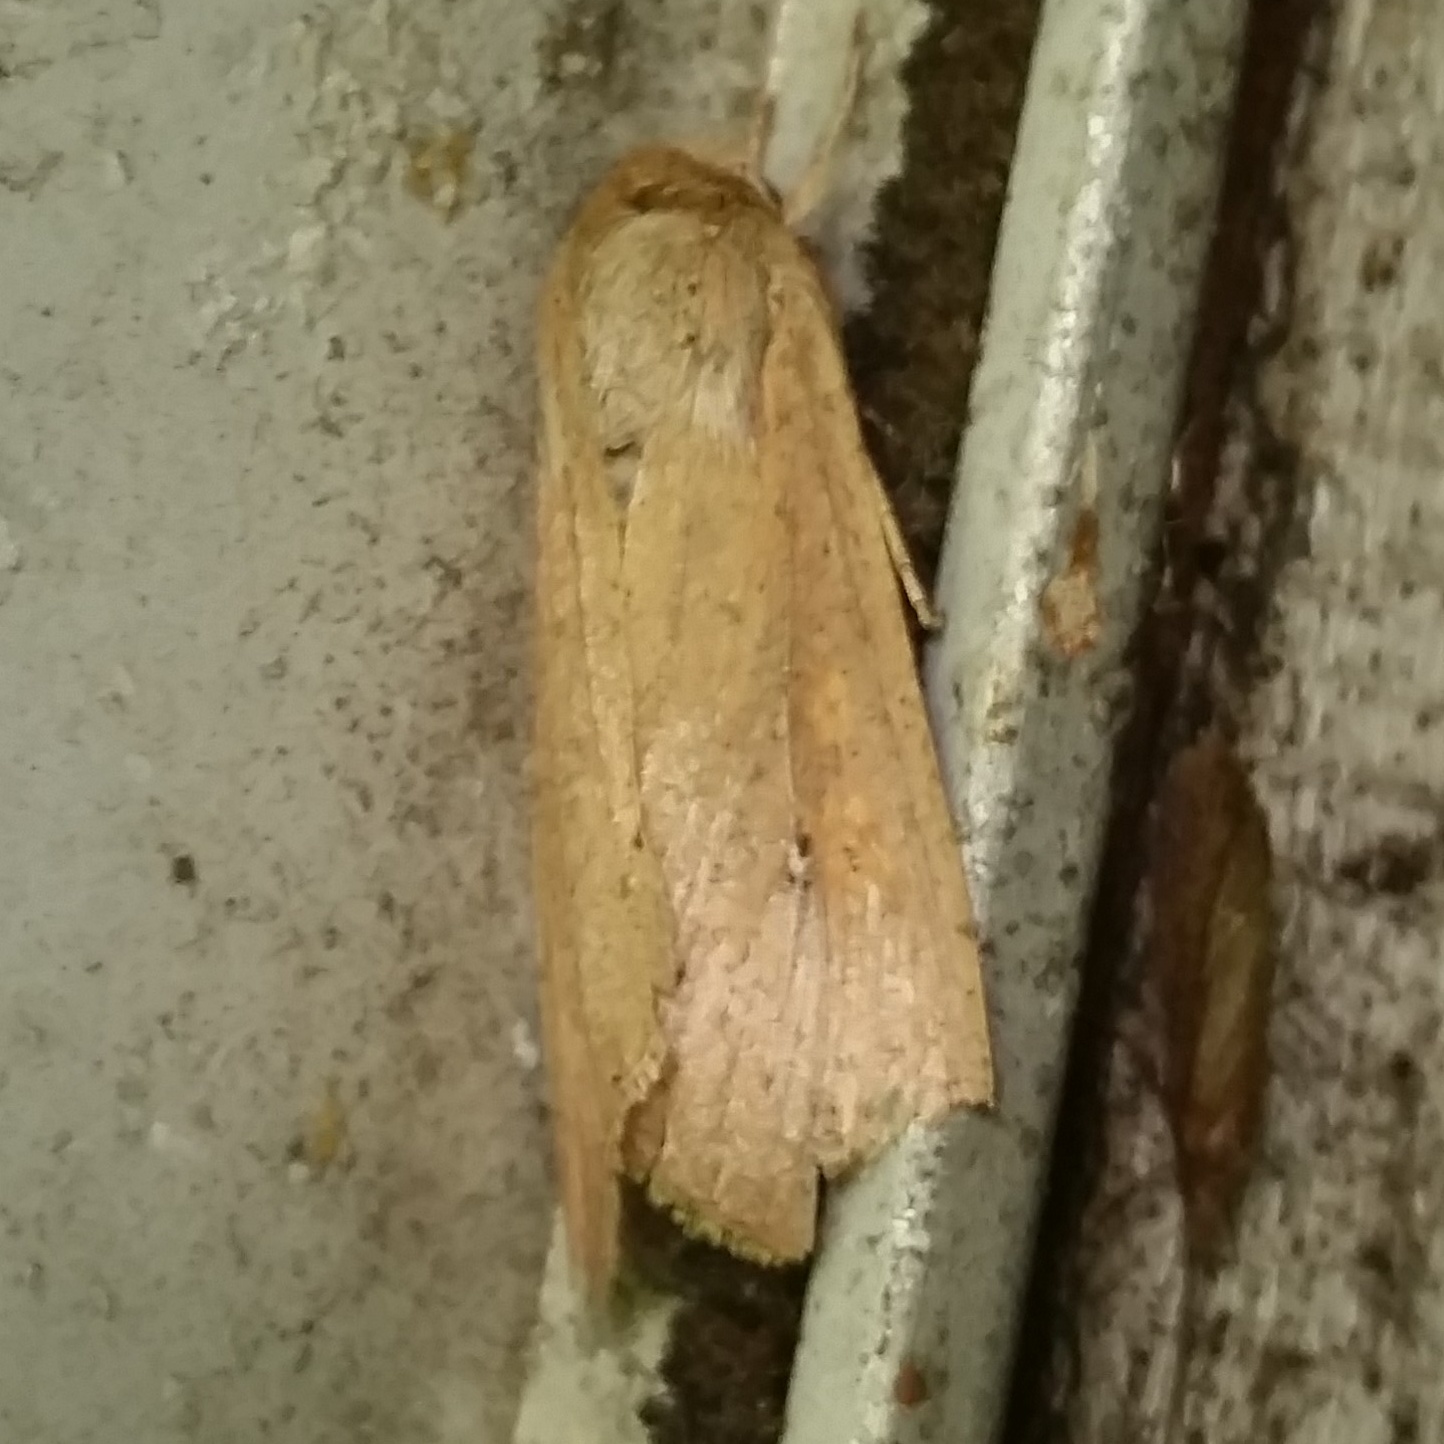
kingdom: Animalia
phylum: Arthropoda
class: Insecta
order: Lepidoptera
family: Noctuidae
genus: Mythimna
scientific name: Mythimna unipuncta
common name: White-speck
